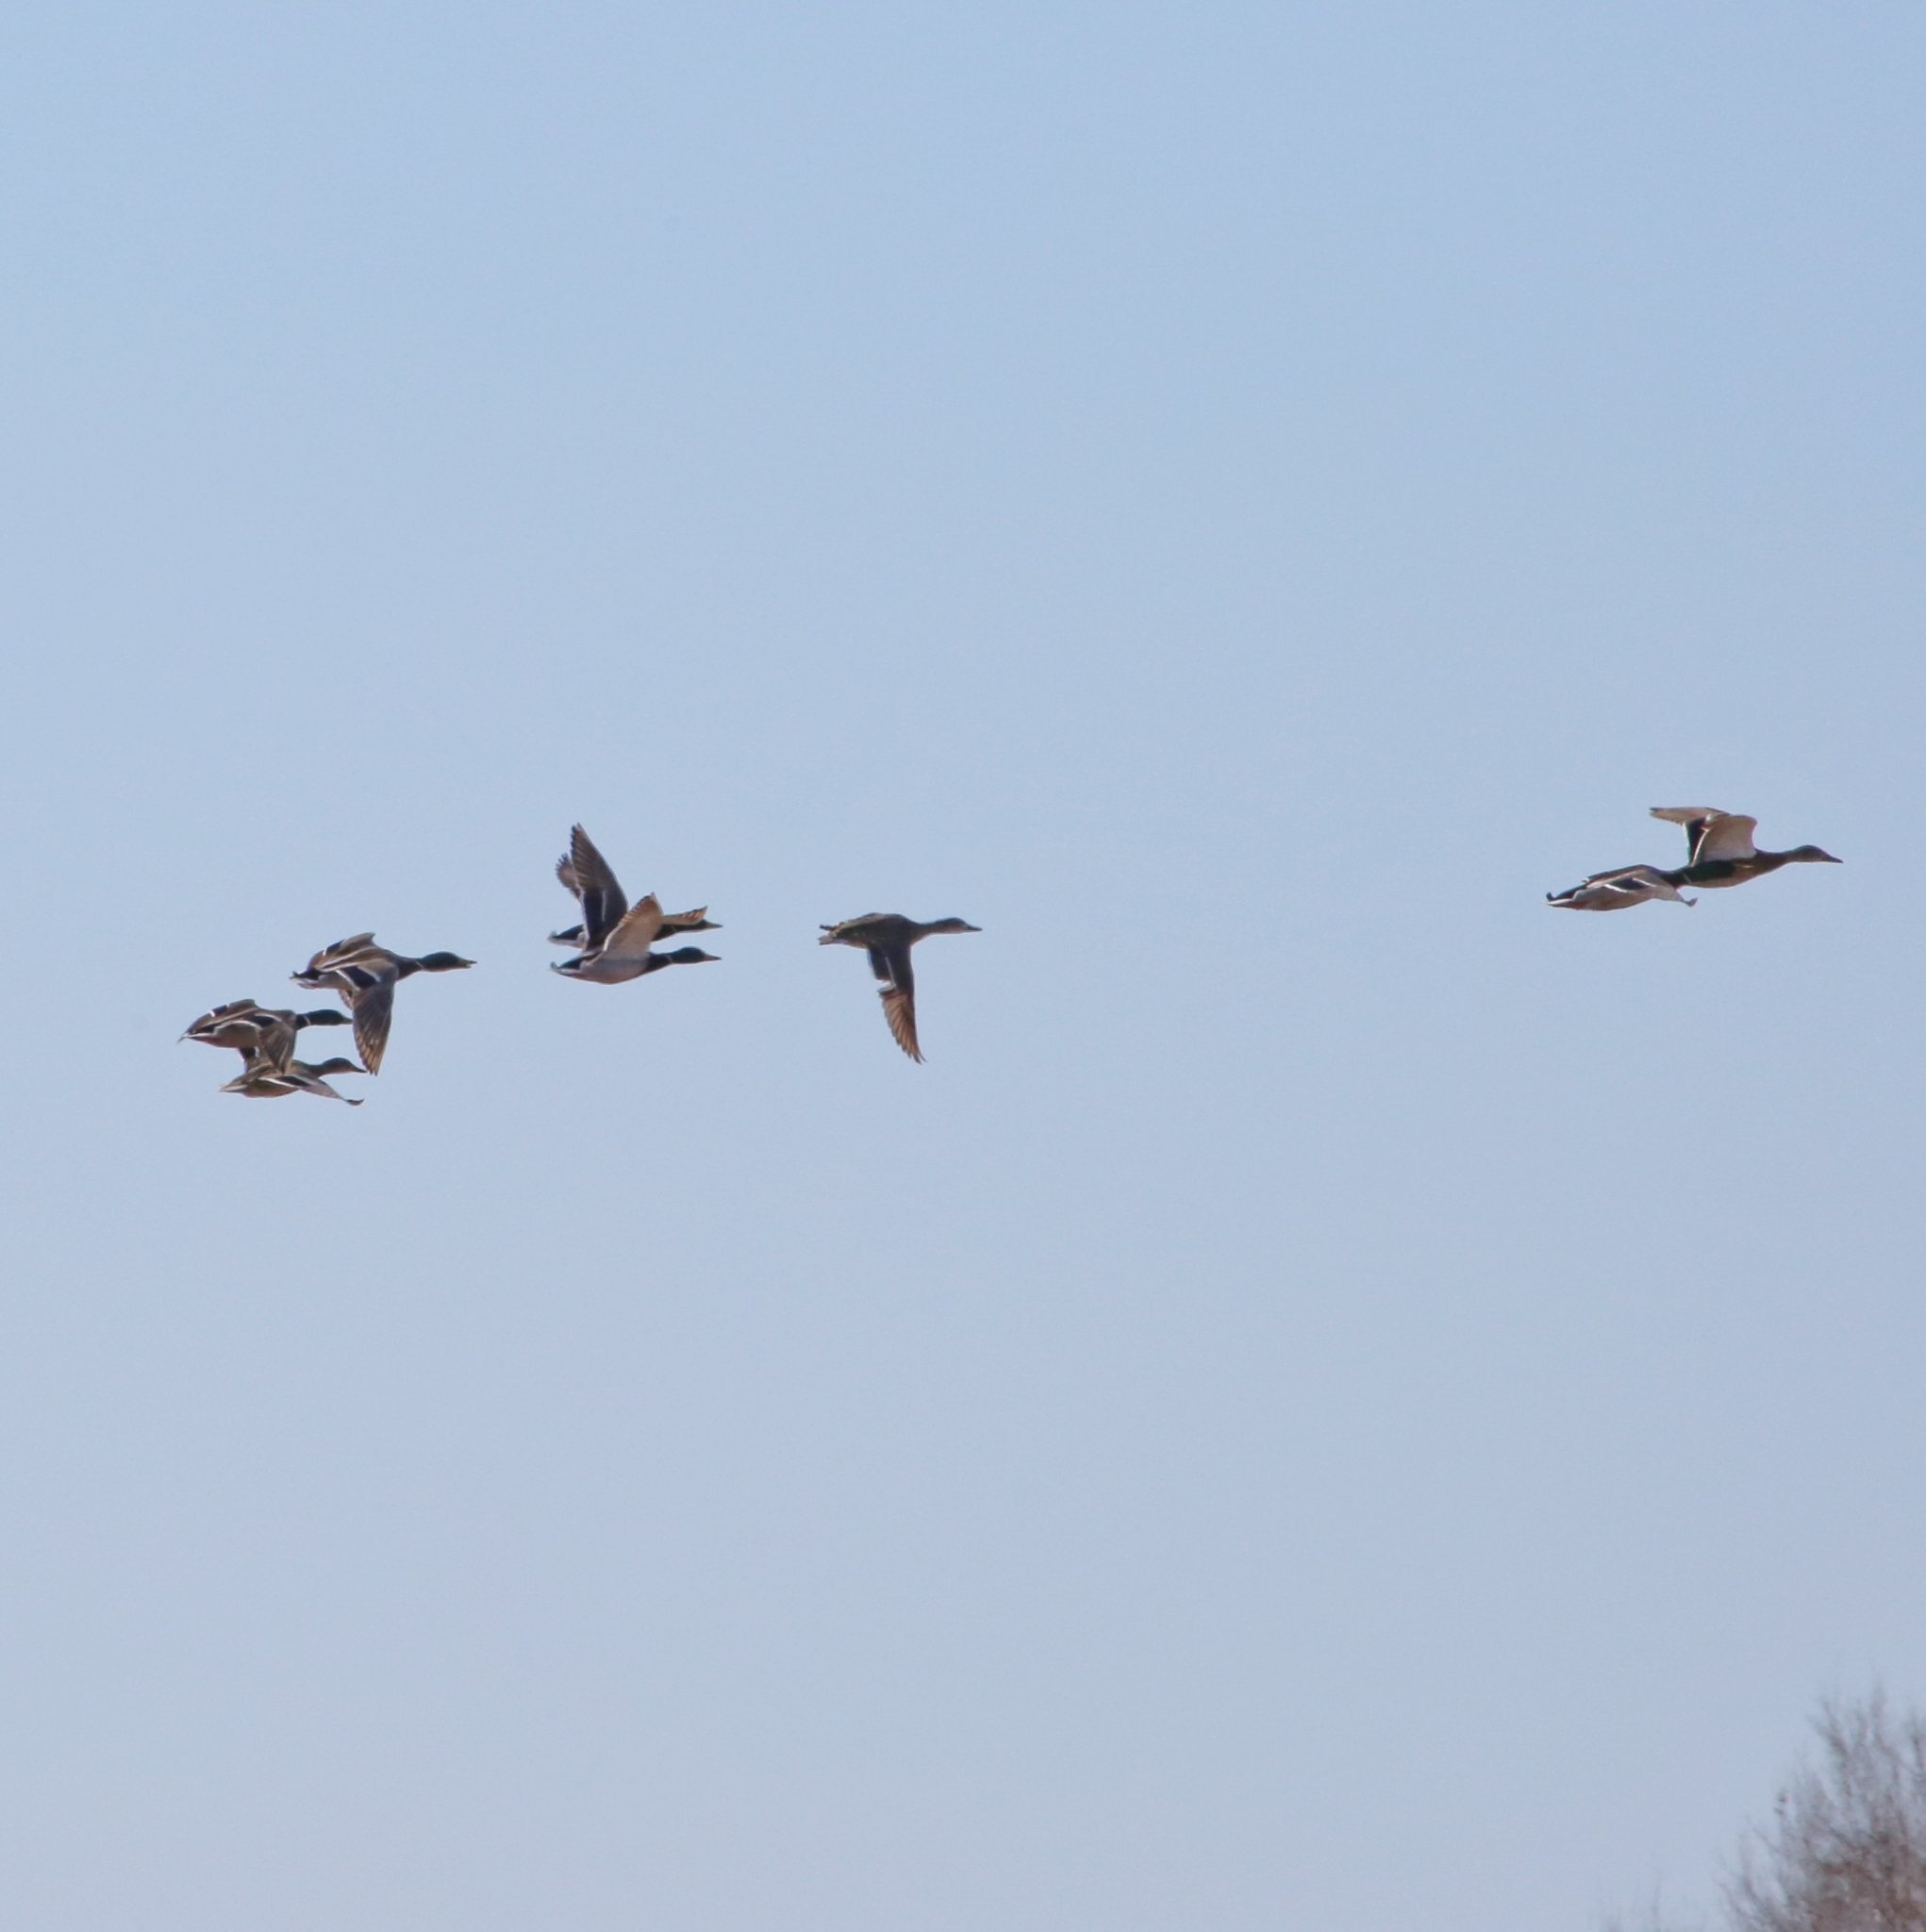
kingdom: Animalia
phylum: Chordata
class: Aves
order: Anseriformes
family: Anatidae
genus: Anas
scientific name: Anas platyrhynchos
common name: Mallard
